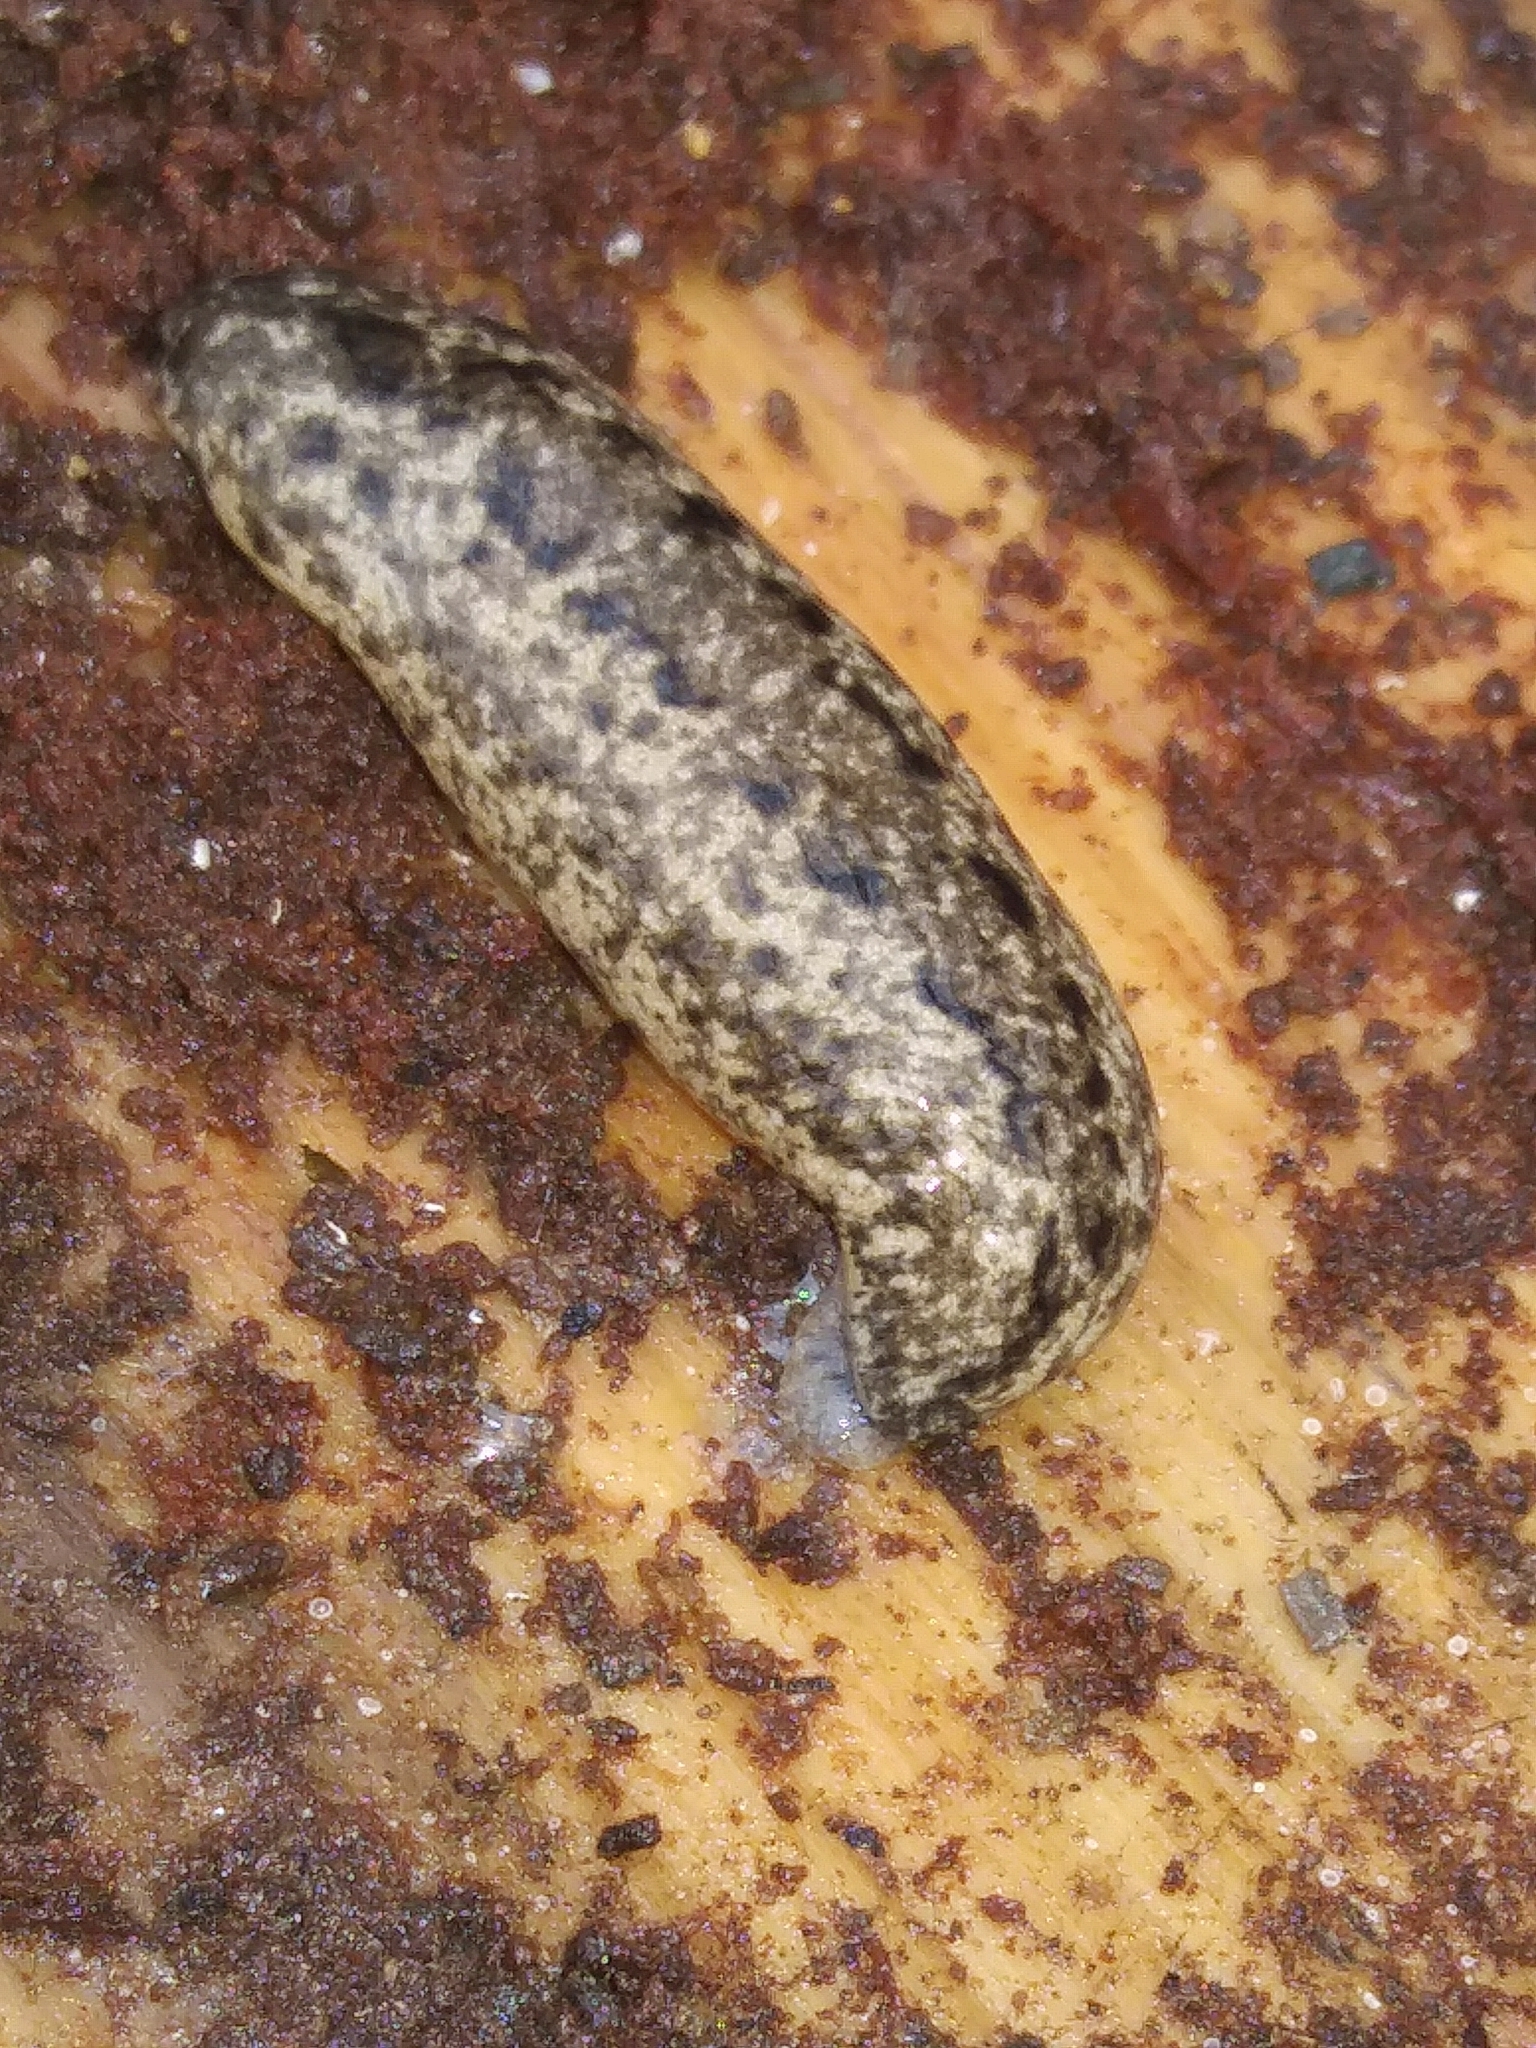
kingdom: Animalia
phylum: Mollusca
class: Gastropoda
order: Stylommatophora
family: Philomycidae
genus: Philomycus
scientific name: Philomycus carolinianus
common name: Carolina mantleslug
